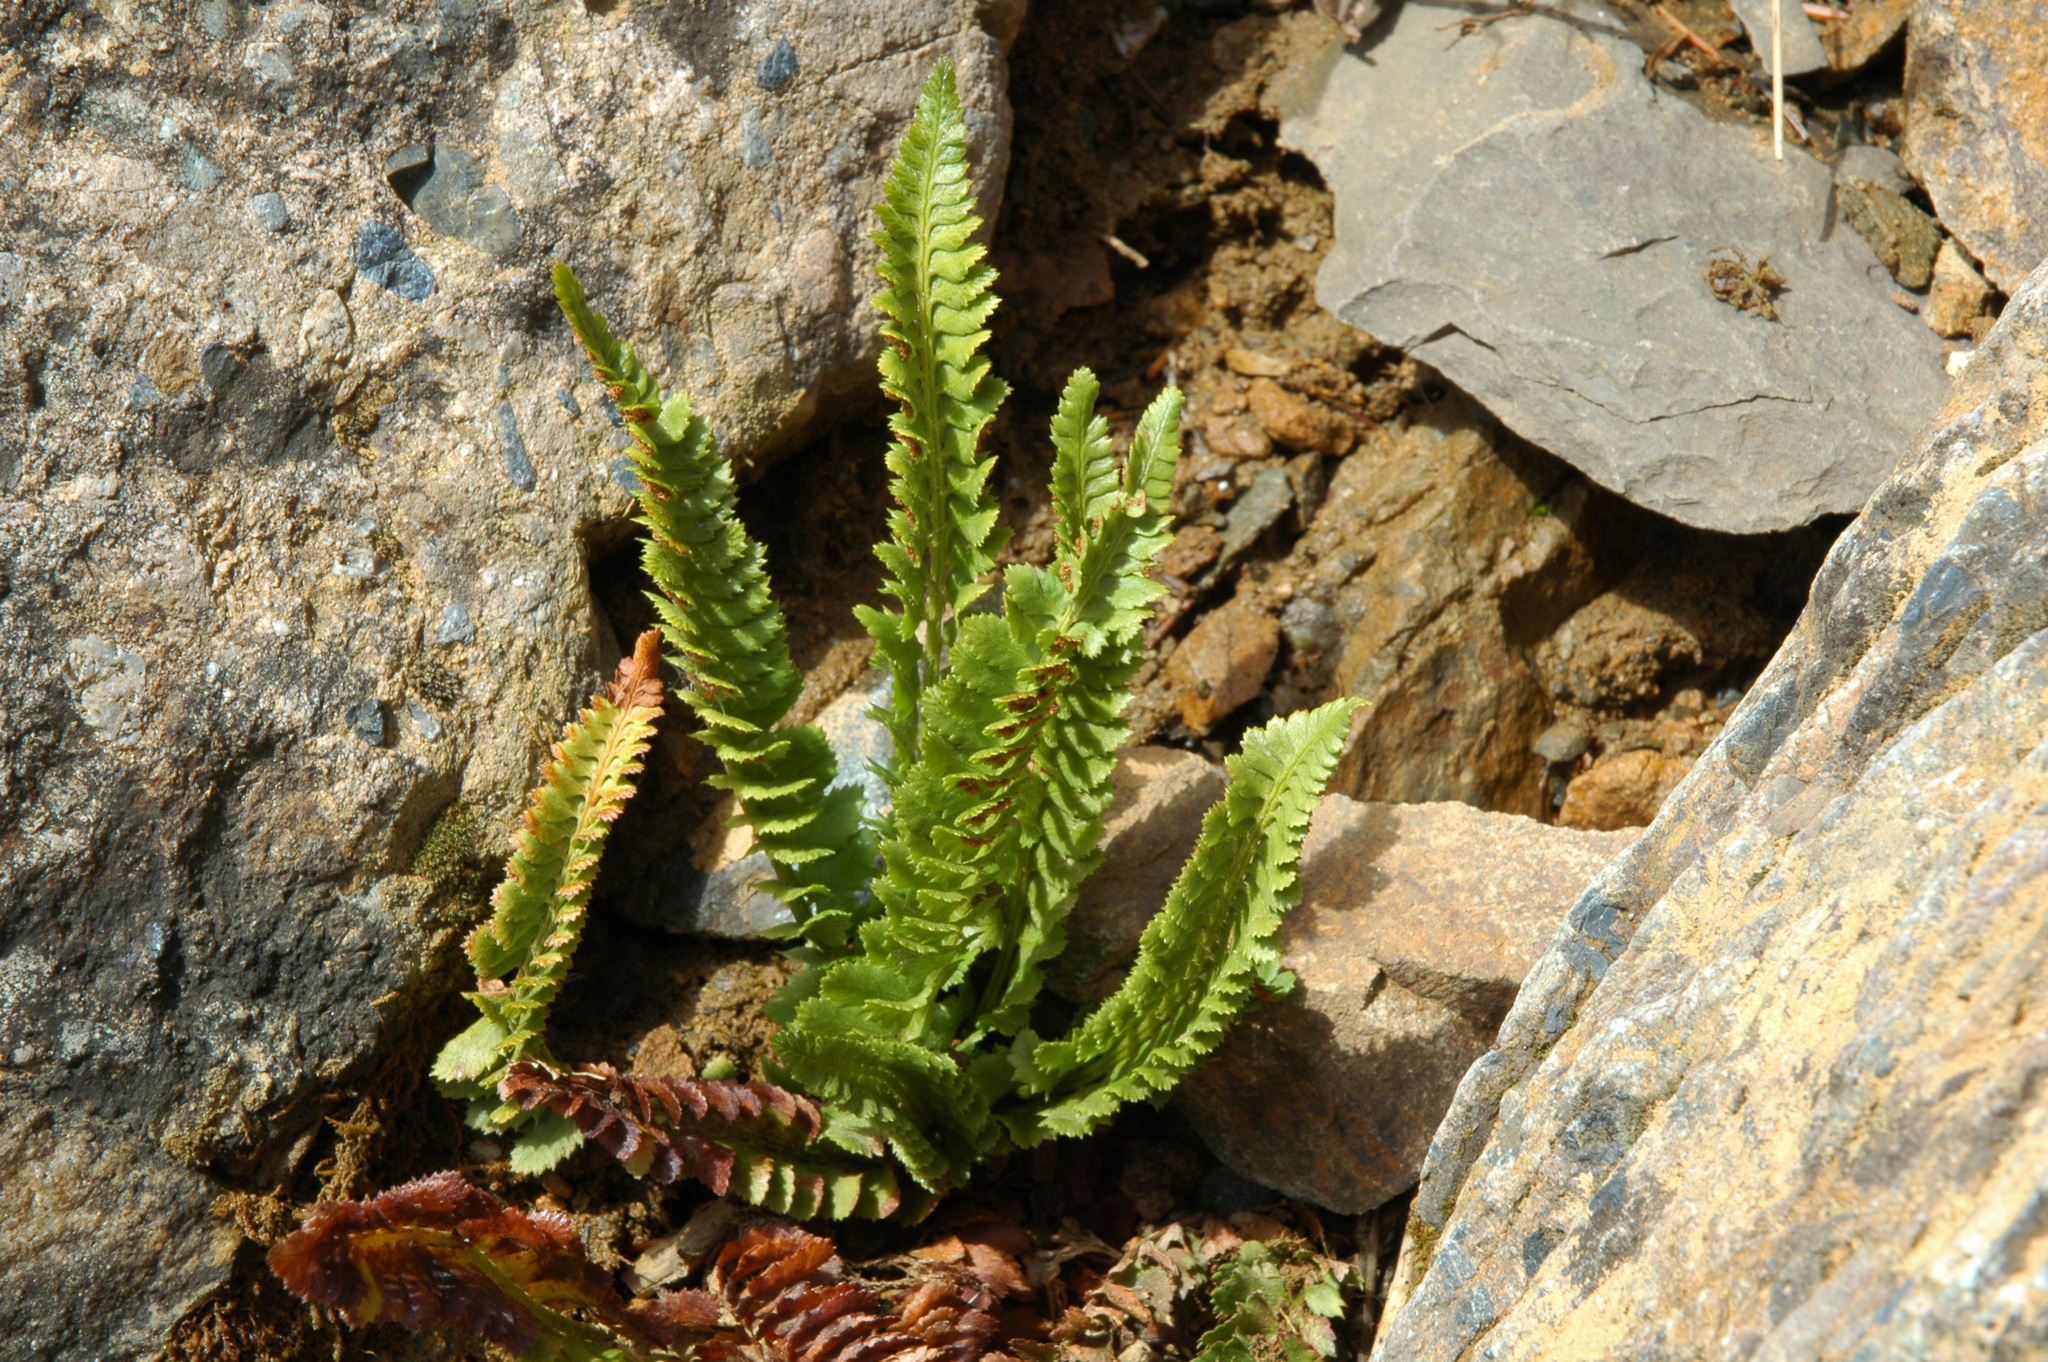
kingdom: Plantae
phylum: Tracheophyta
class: Polypodiopsida
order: Polypodiales
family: Dryopteridaceae
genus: Polystichum
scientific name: Polystichum kruckebergii
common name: Kruckeberg's holly fern
